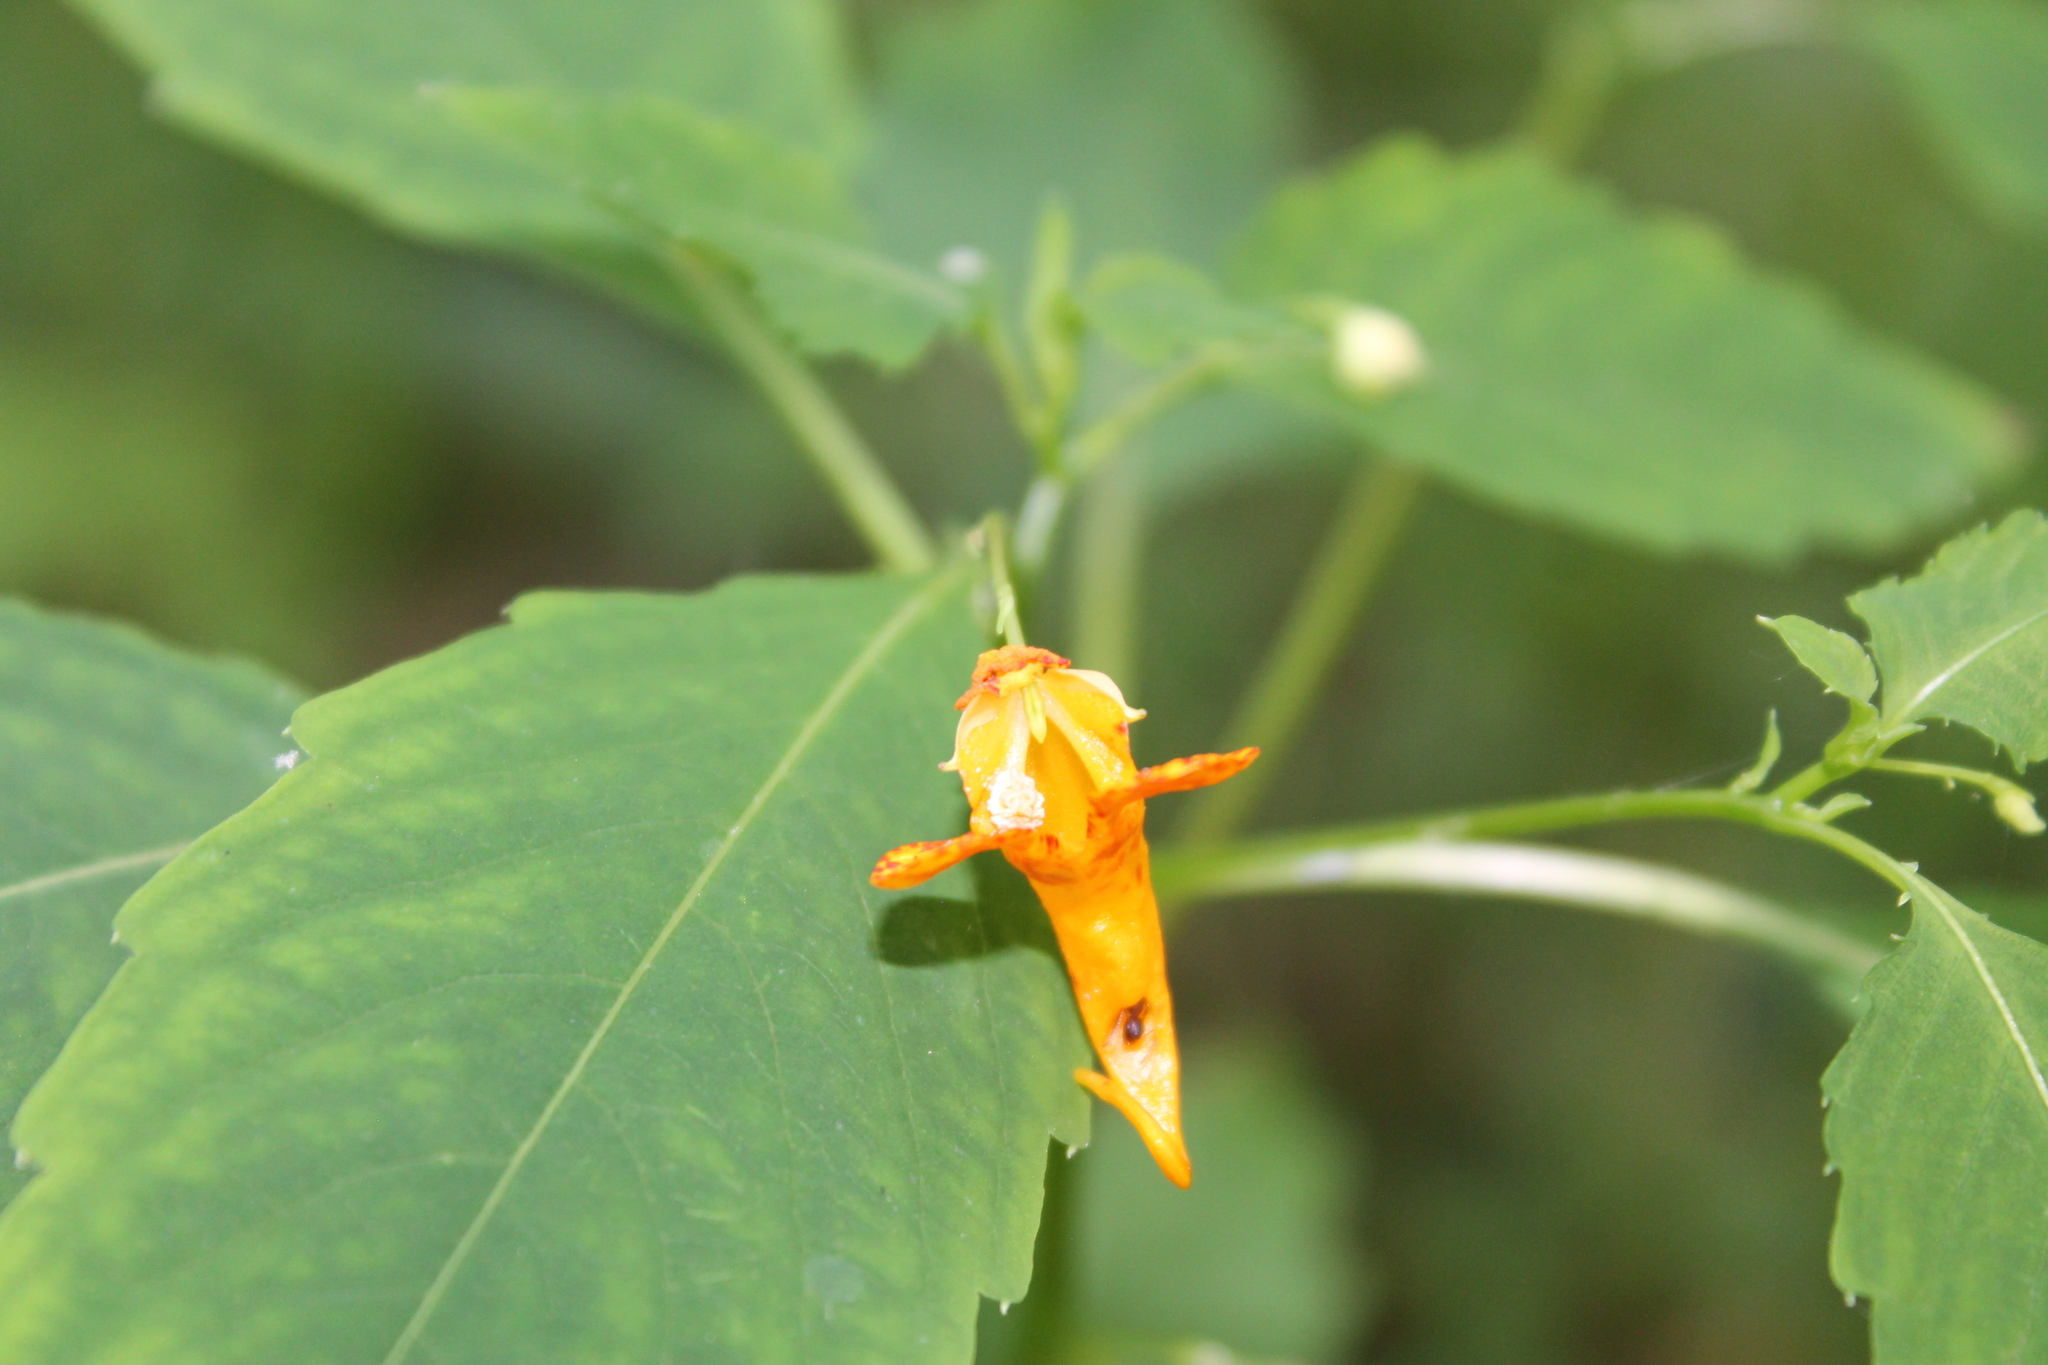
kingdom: Plantae
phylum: Tracheophyta
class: Magnoliopsida
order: Ericales
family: Balsaminaceae
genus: Impatiens
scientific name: Impatiens capensis
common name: Orange balsam
